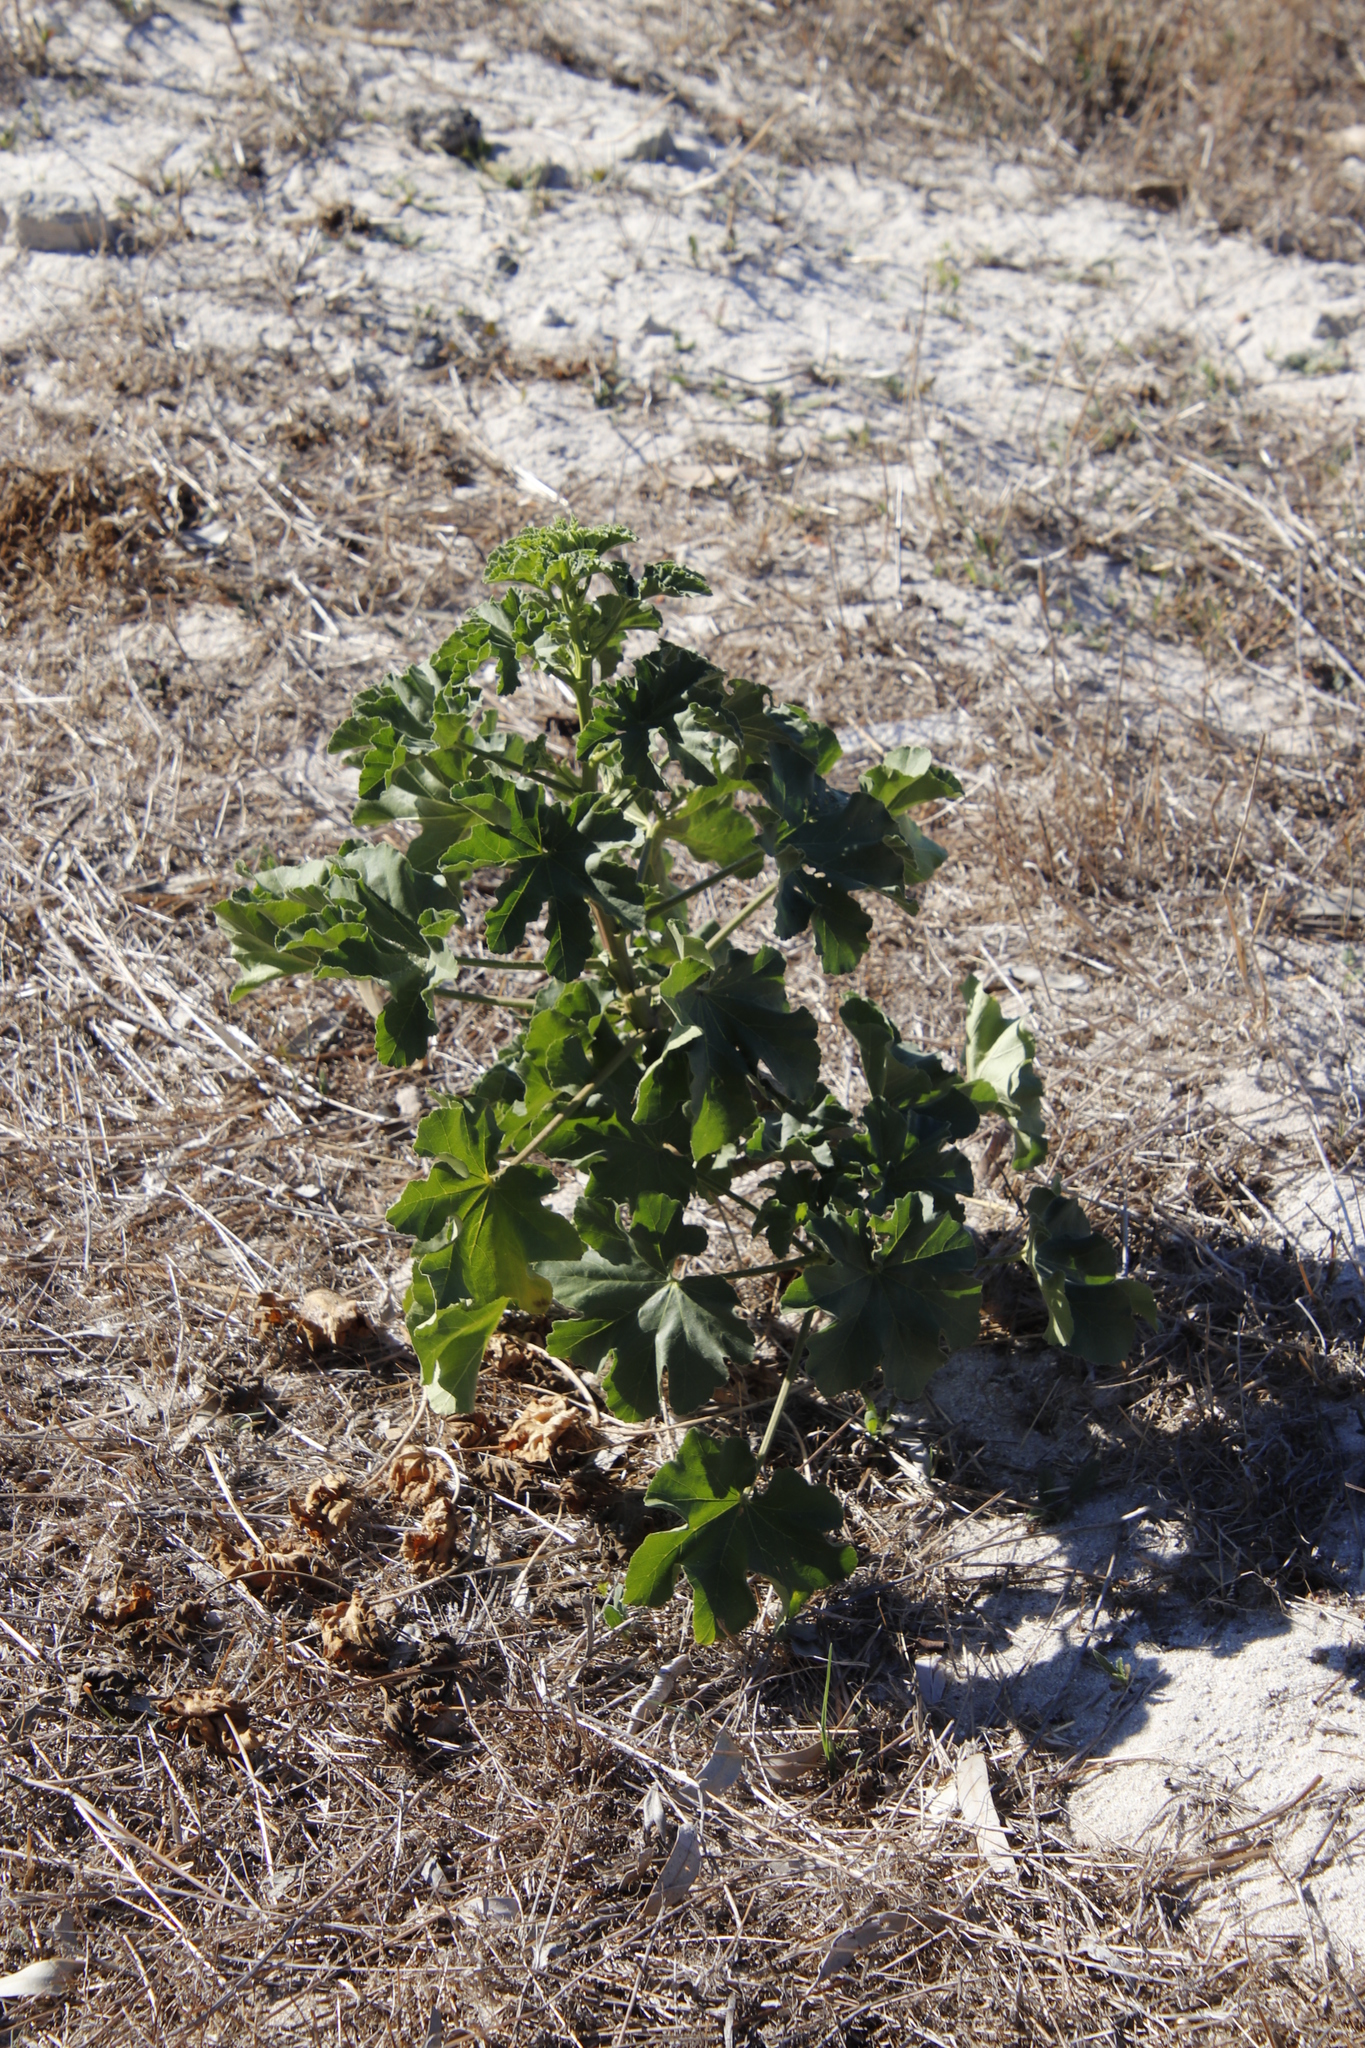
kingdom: Plantae
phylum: Tracheophyta
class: Magnoliopsida
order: Malpighiales
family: Euphorbiaceae
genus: Ricinus
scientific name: Ricinus communis
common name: Castor-oil-plant
